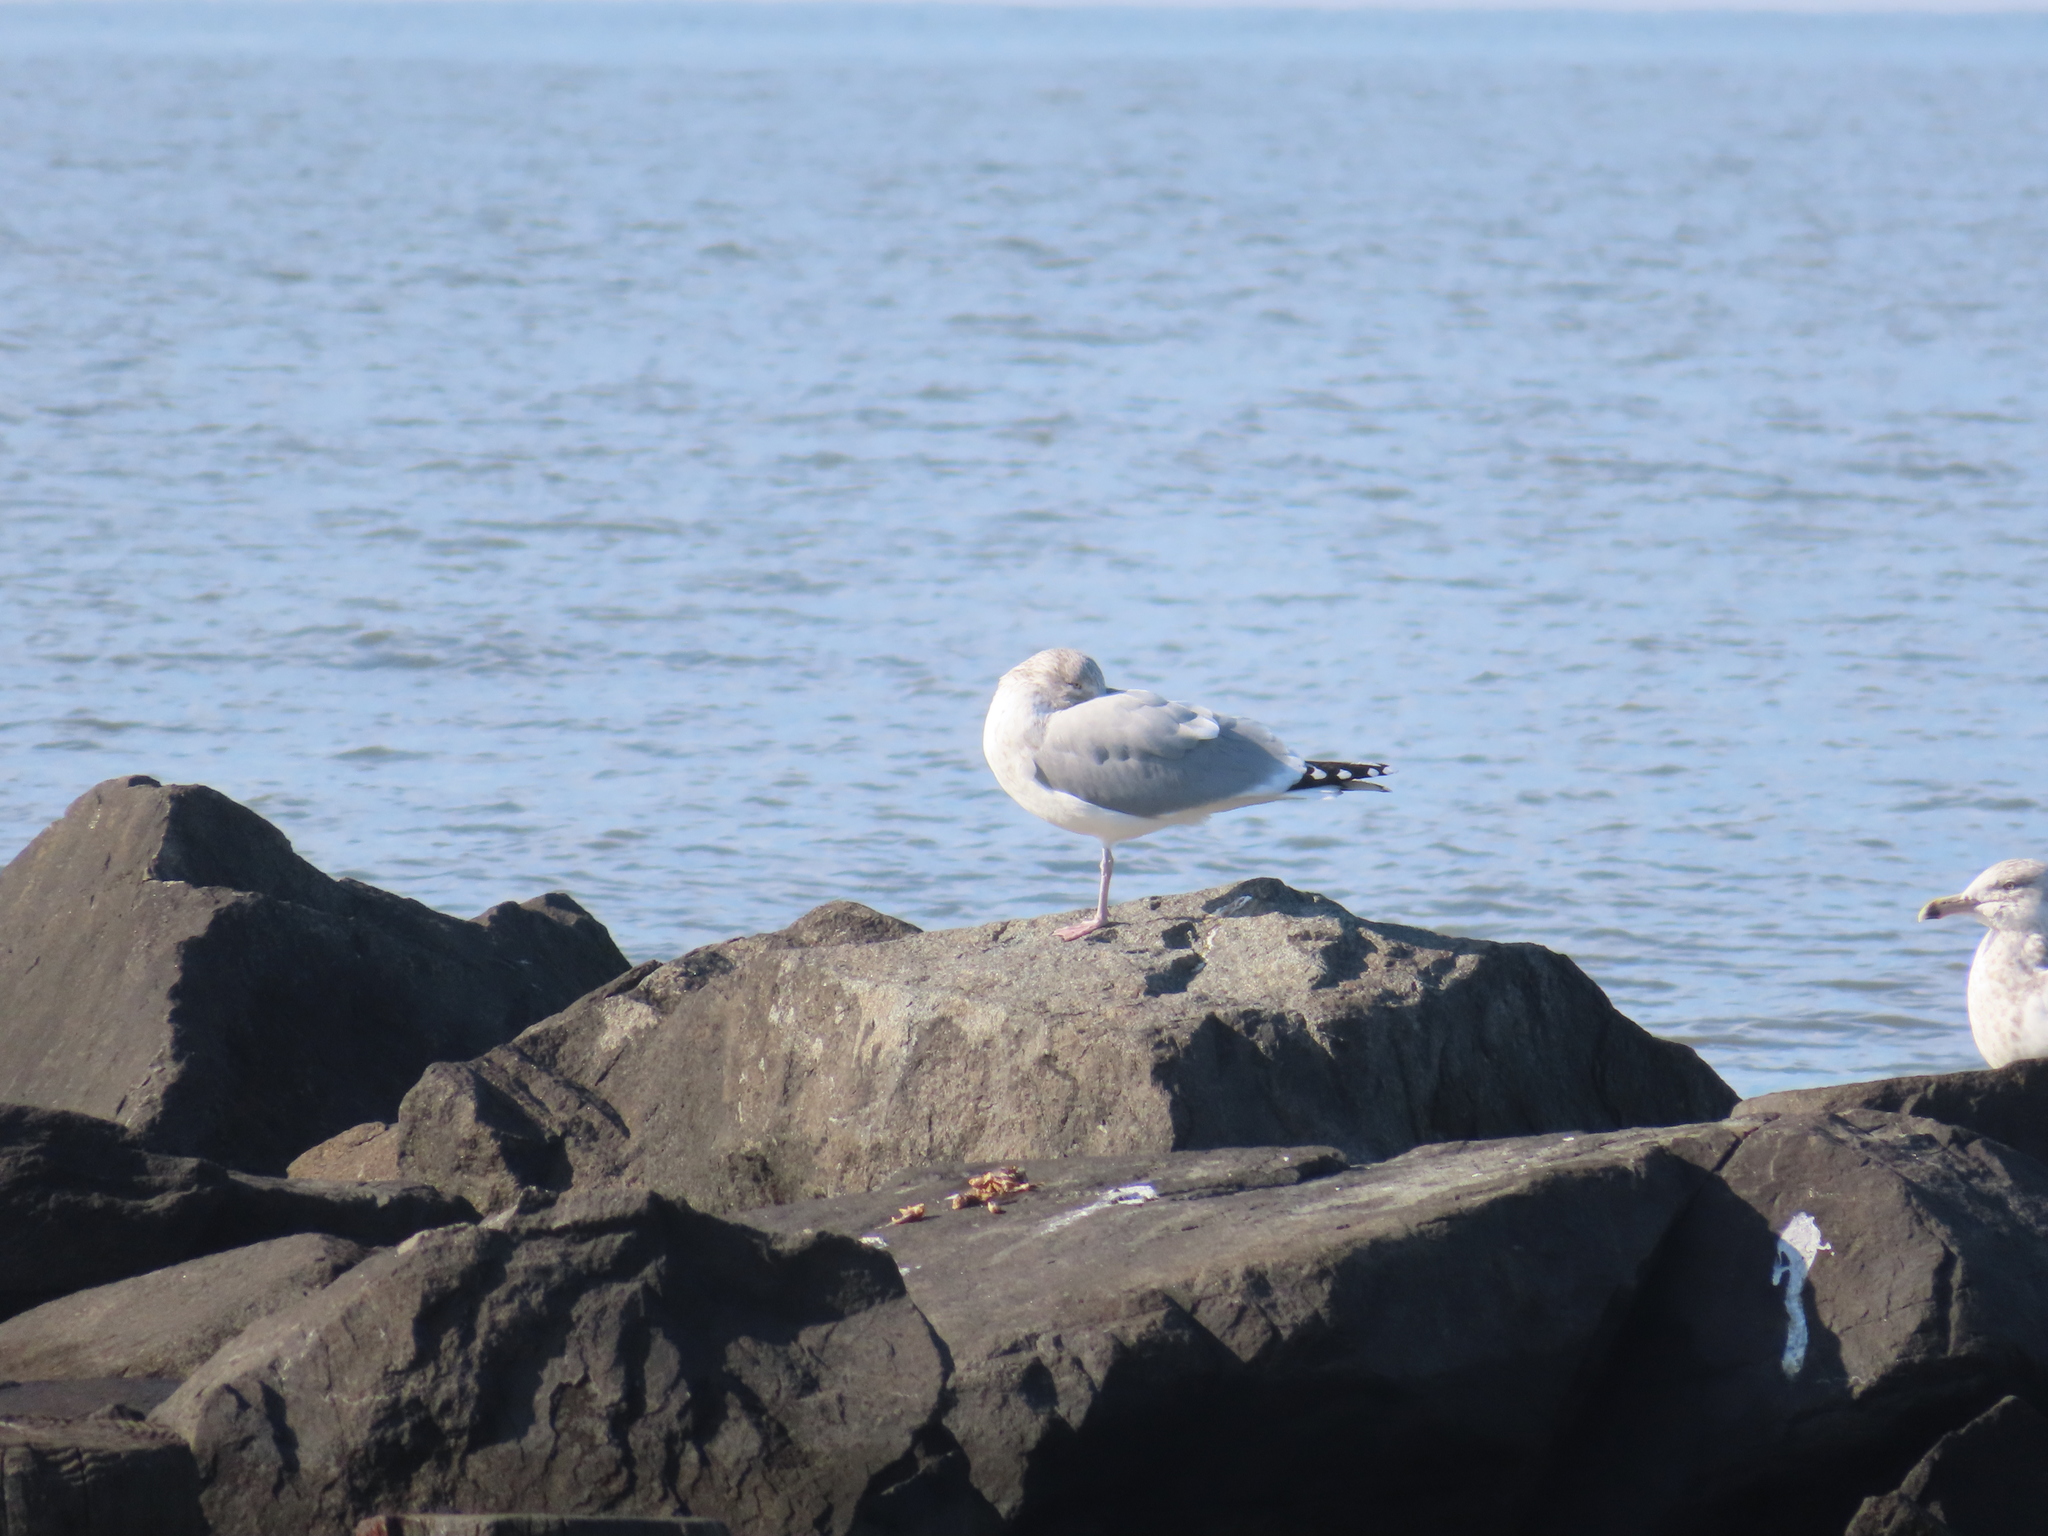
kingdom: Animalia
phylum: Chordata
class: Aves
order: Charadriiformes
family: Laridae
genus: Larus
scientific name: Larus argentatus
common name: Herring gull
